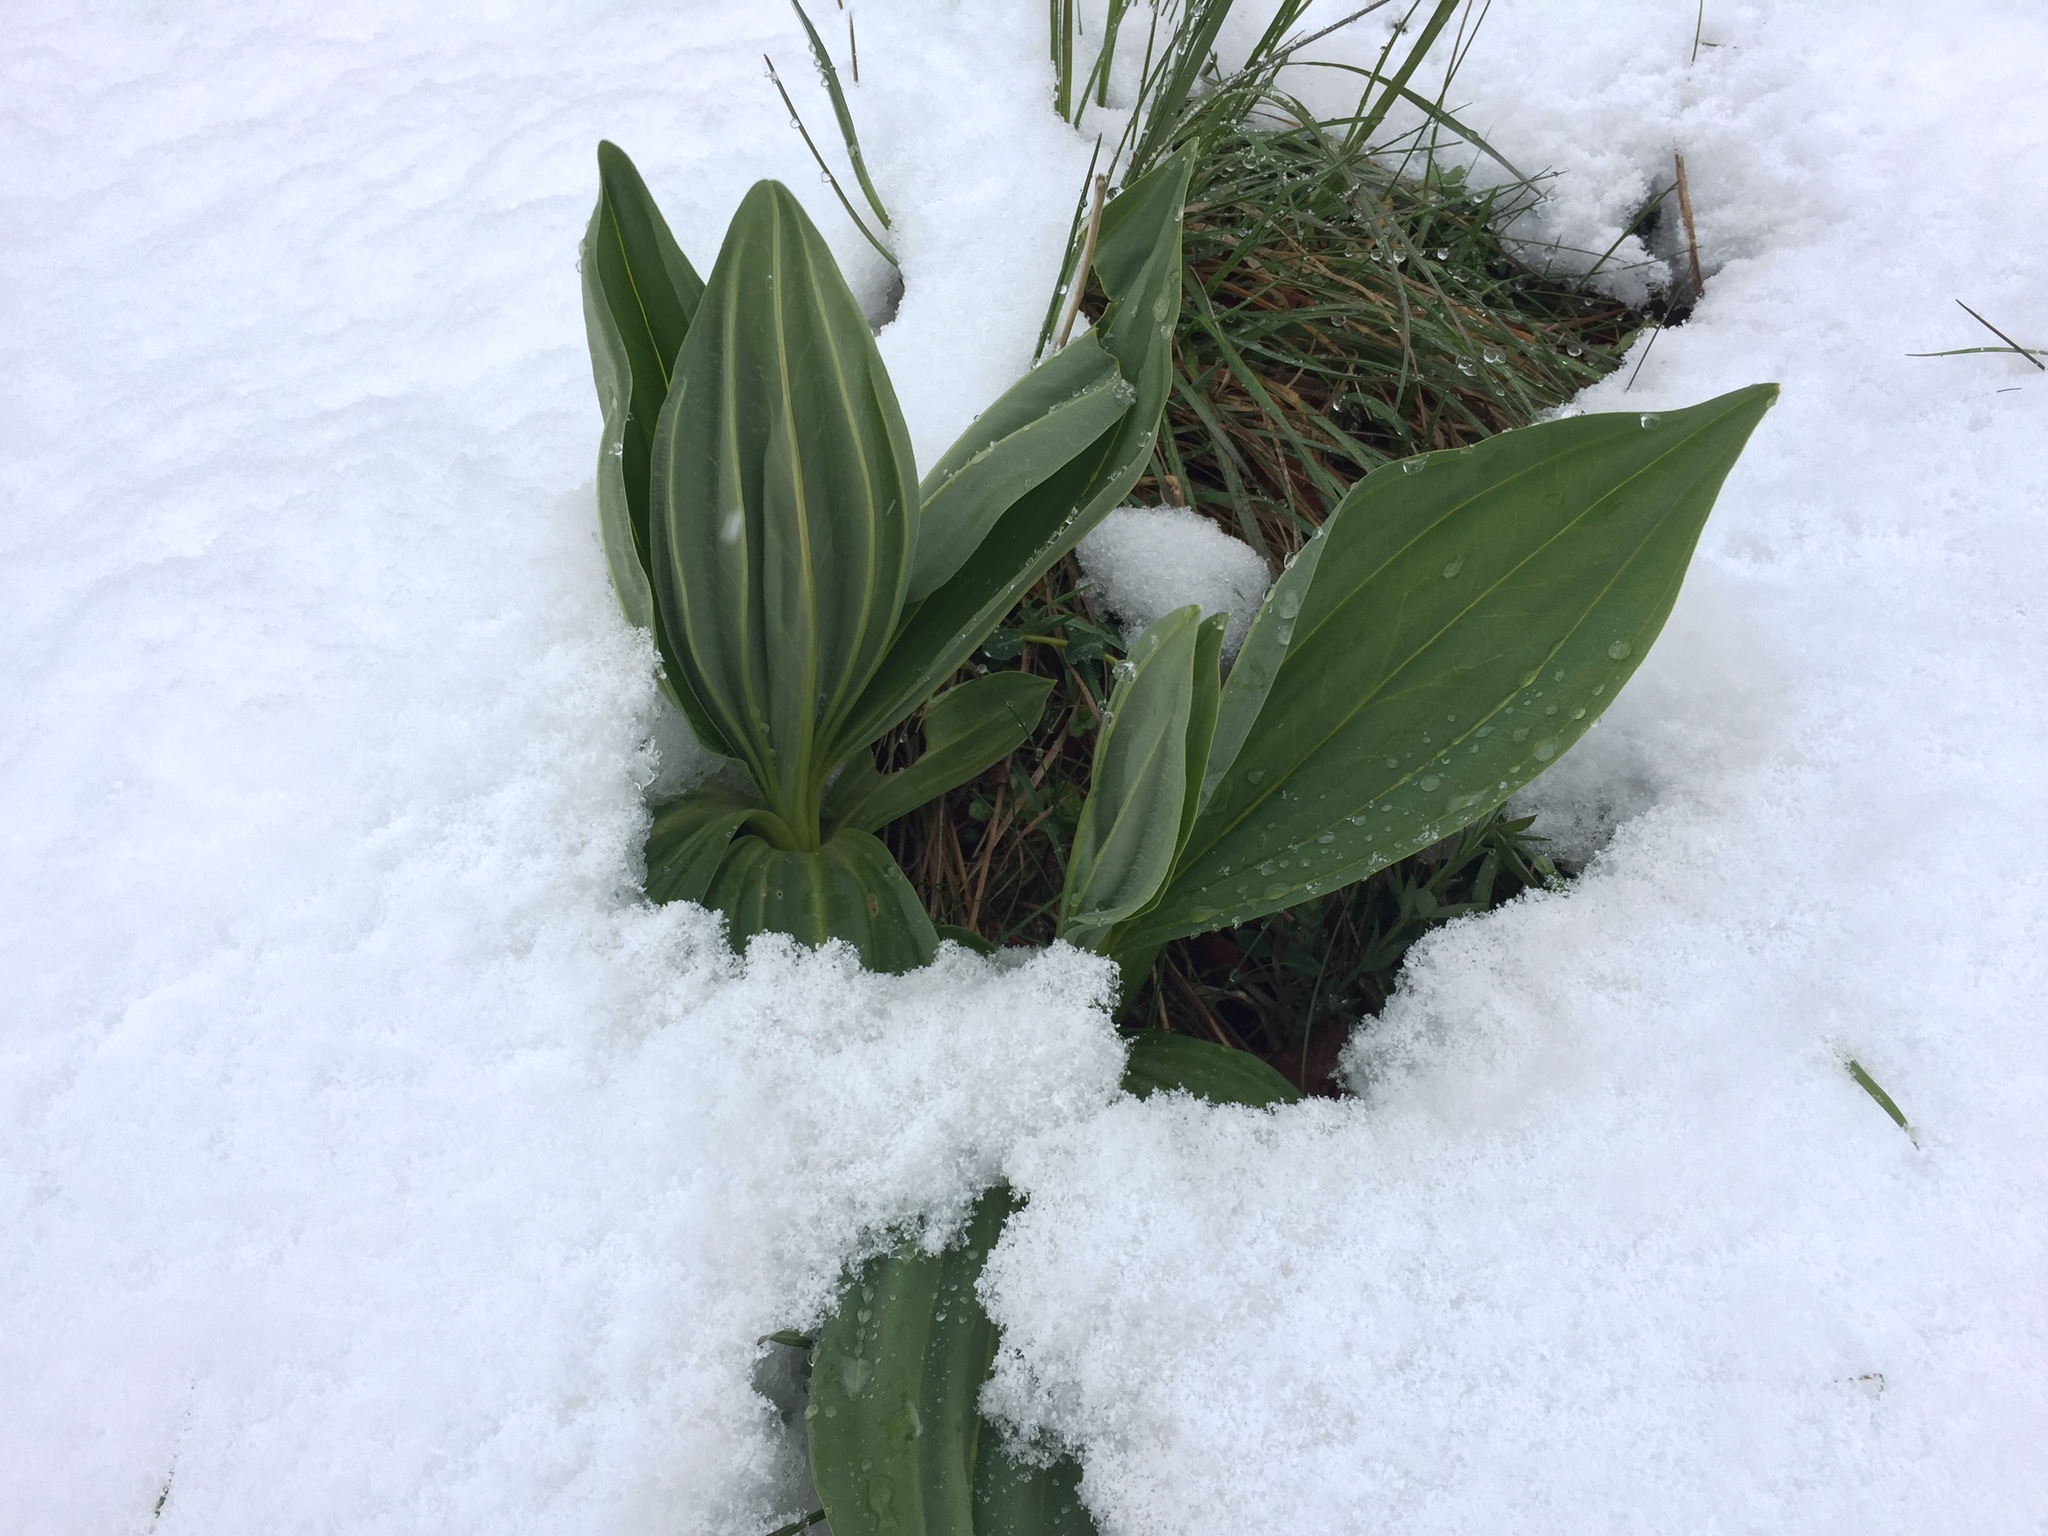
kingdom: Plantae
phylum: Tracheophyta
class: Magnoliopsida
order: Gentianales
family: Gentianaceae
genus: Gentiana
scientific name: Gentiana lutea
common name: Great yellow gentian
